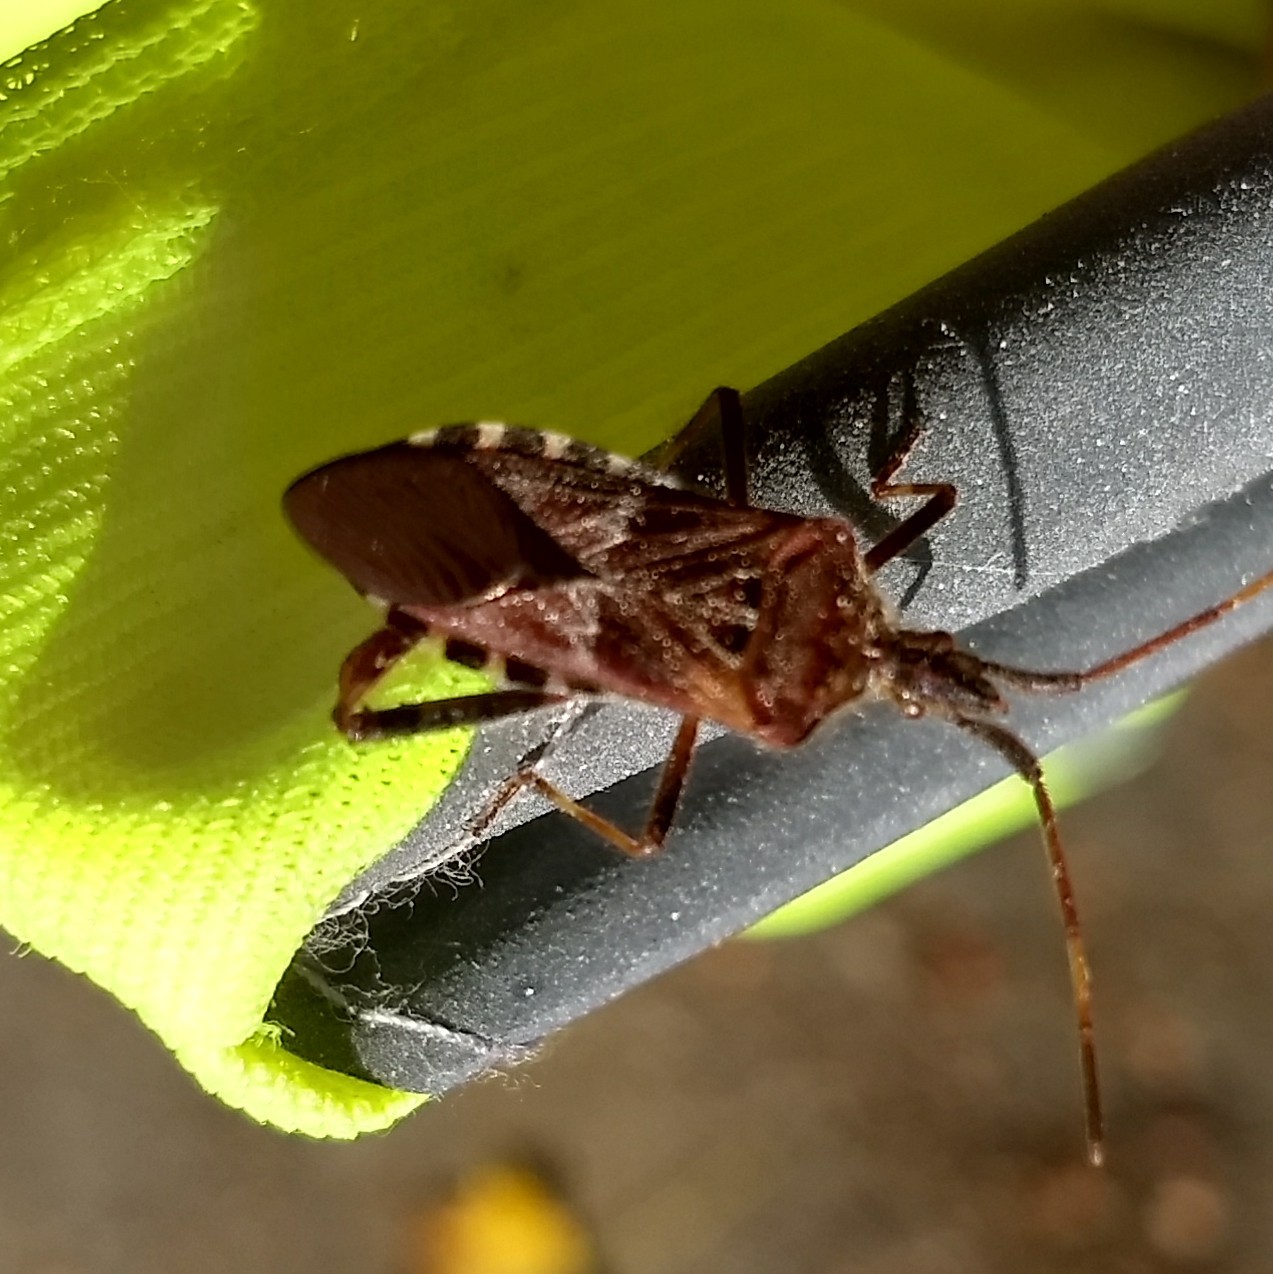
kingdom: Animalia
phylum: Arthropoda
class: Insecta
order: Hemiptera
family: Coreidae
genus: Leptoglossus
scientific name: Leptoglossus occidentalis
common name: Western conifer-seed bug
